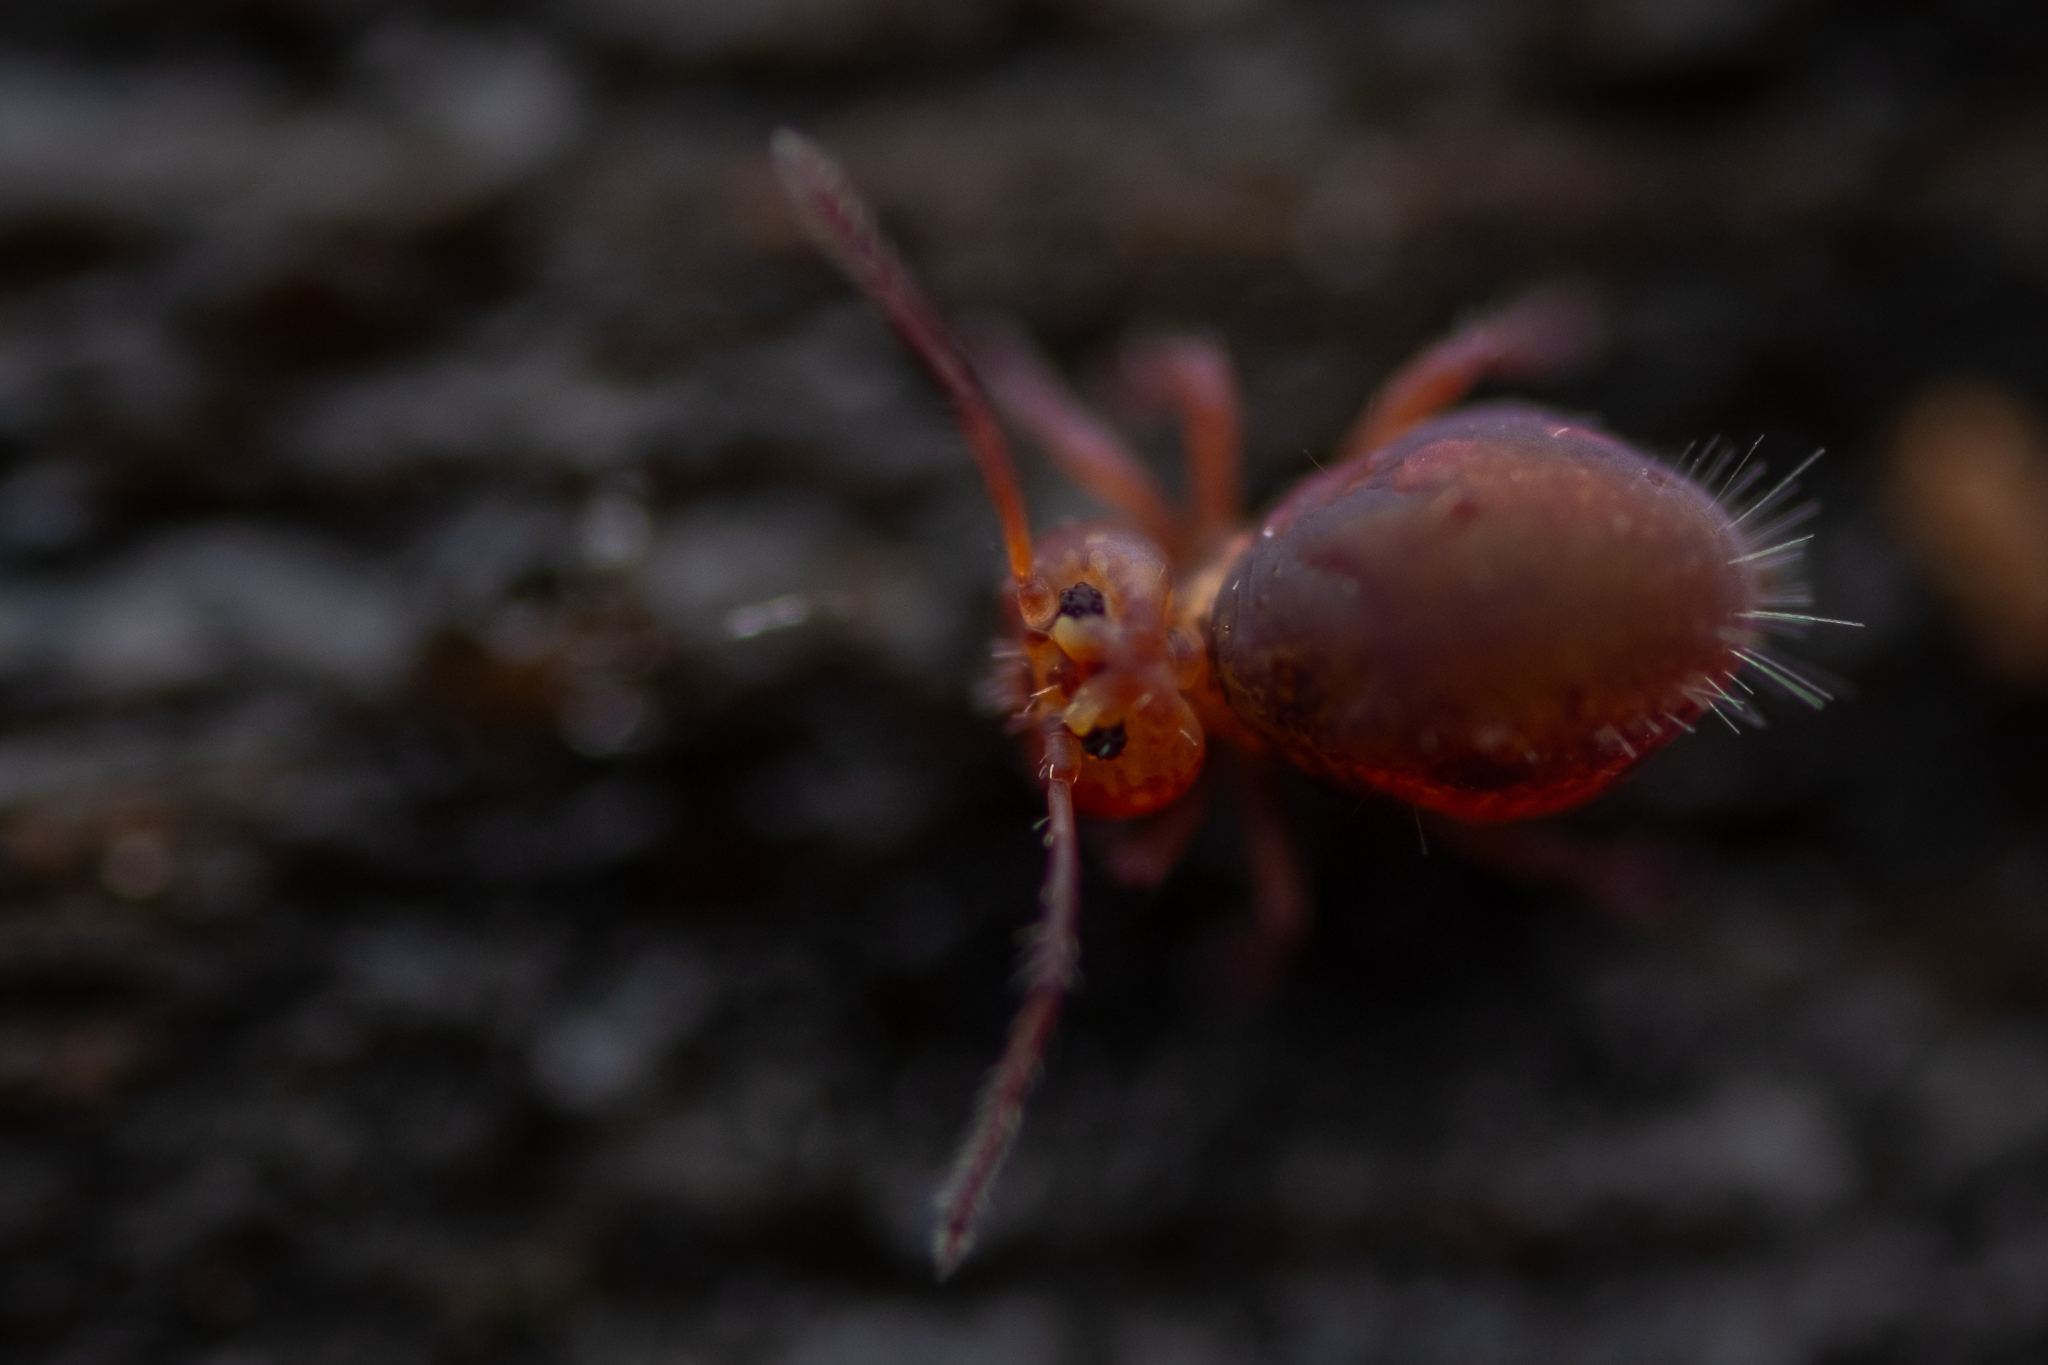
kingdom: Animalia
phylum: Arthropoda
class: Collembola
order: Symphypleona
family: Dicyrtomidae
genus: Dicyrtoma
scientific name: Dicyrtoma fusca
